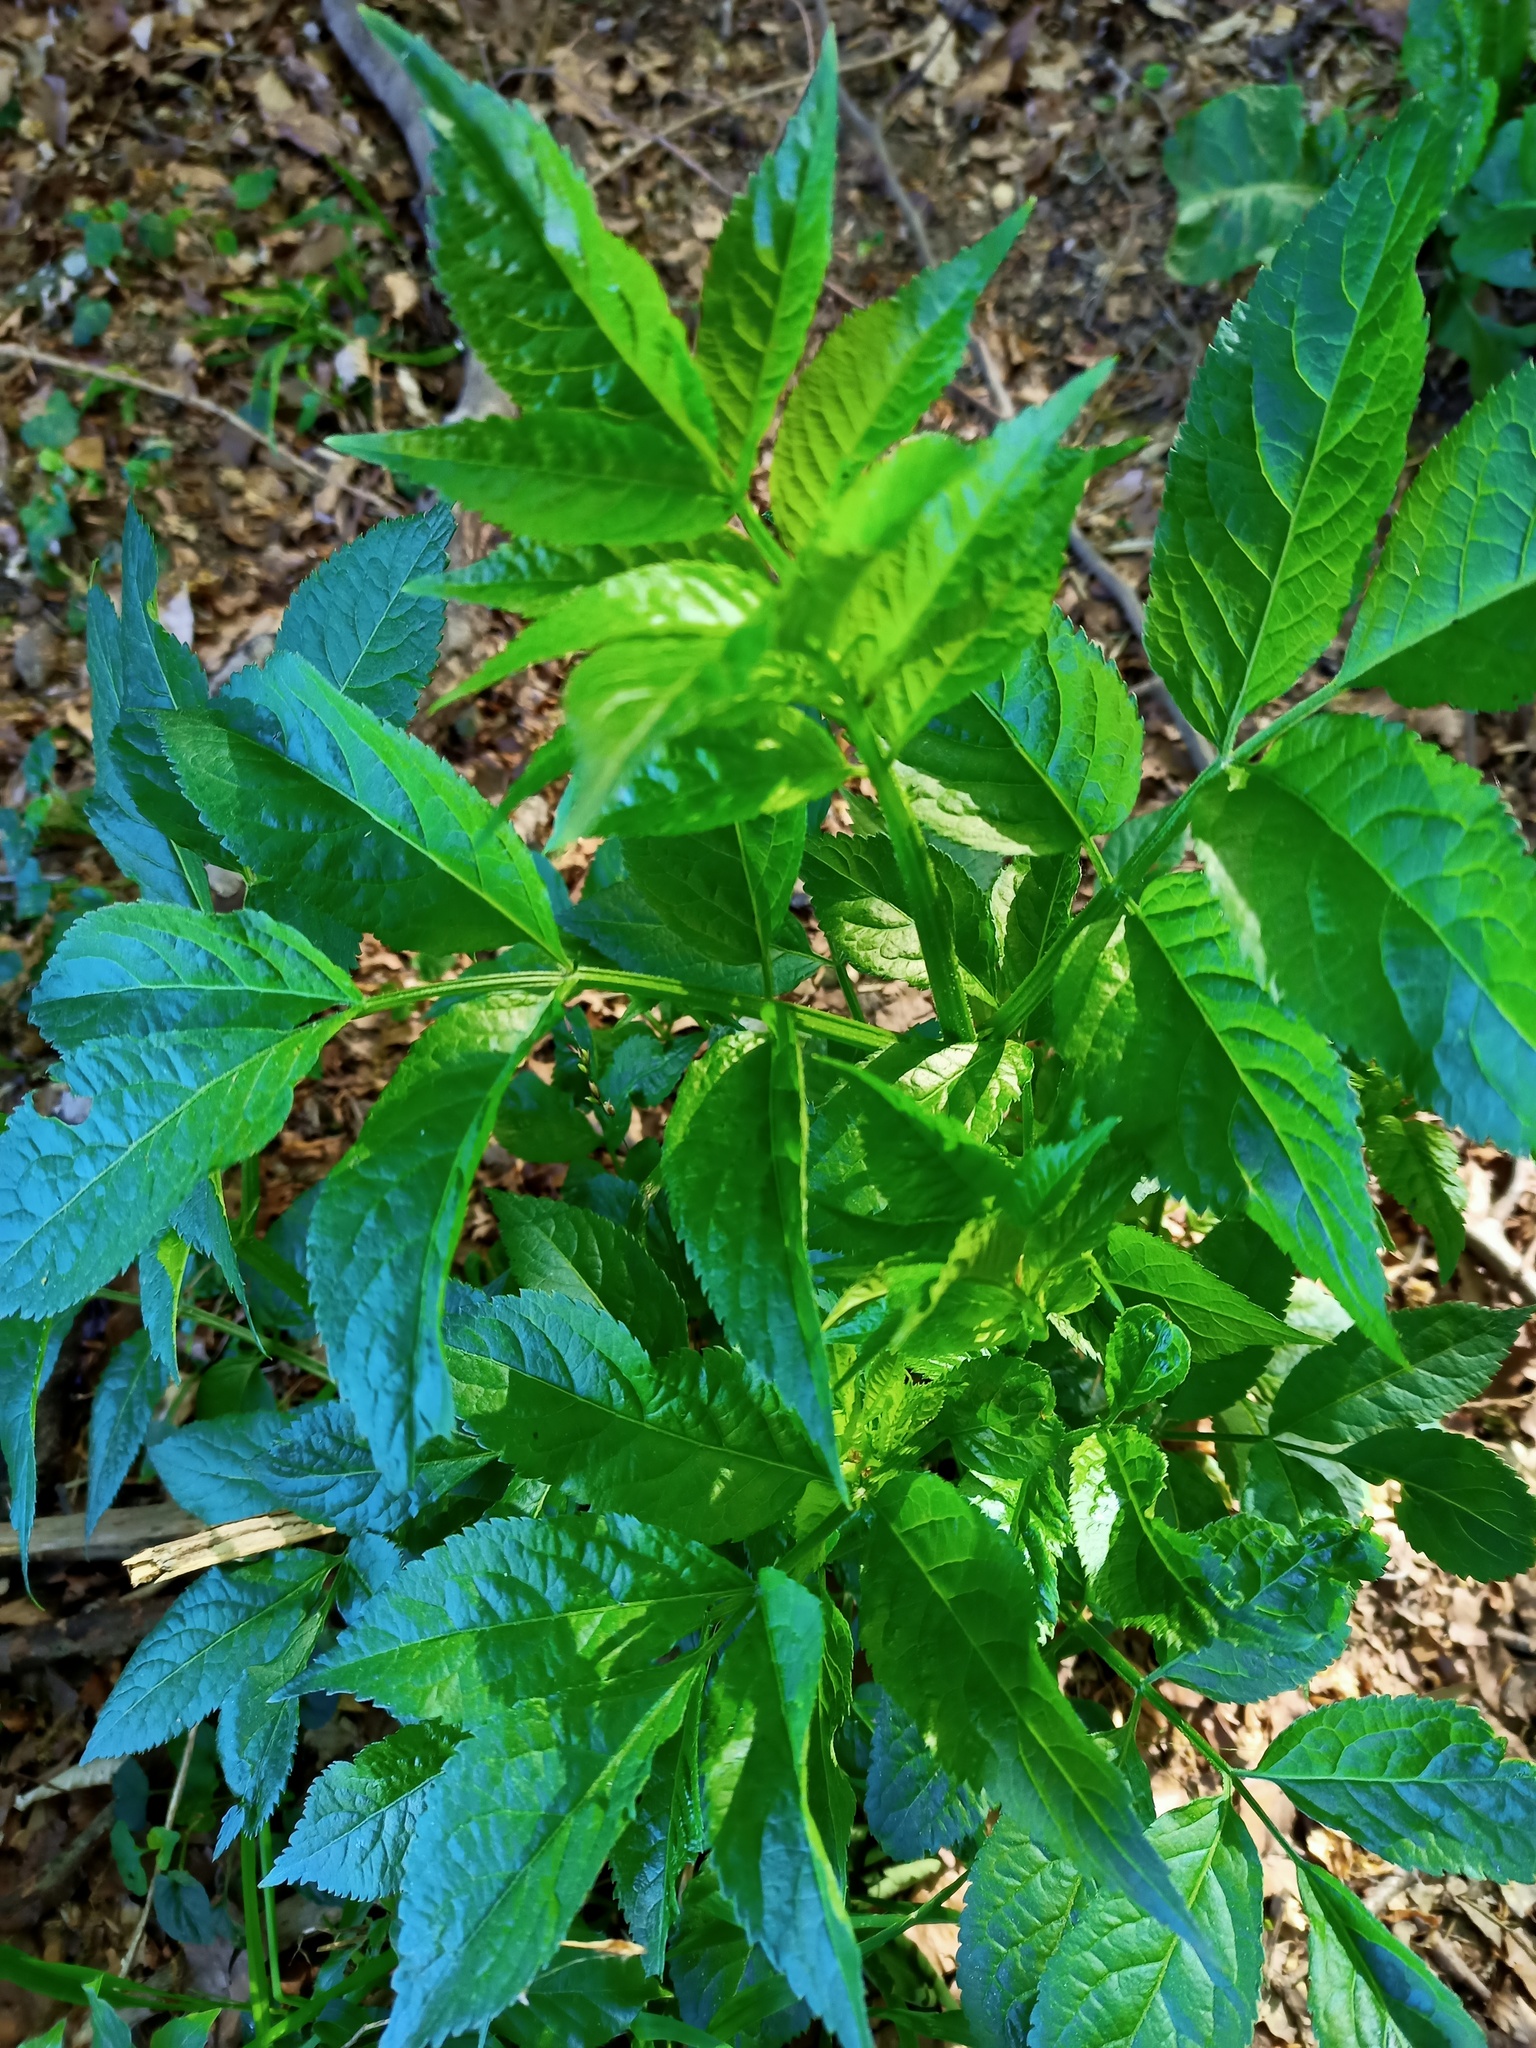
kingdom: Plantae
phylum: Tracheophyta
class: Magnoliopsida
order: Dipsacales
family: Viburnaceae
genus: Sambucus
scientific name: Sambucus nigra
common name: Elder
